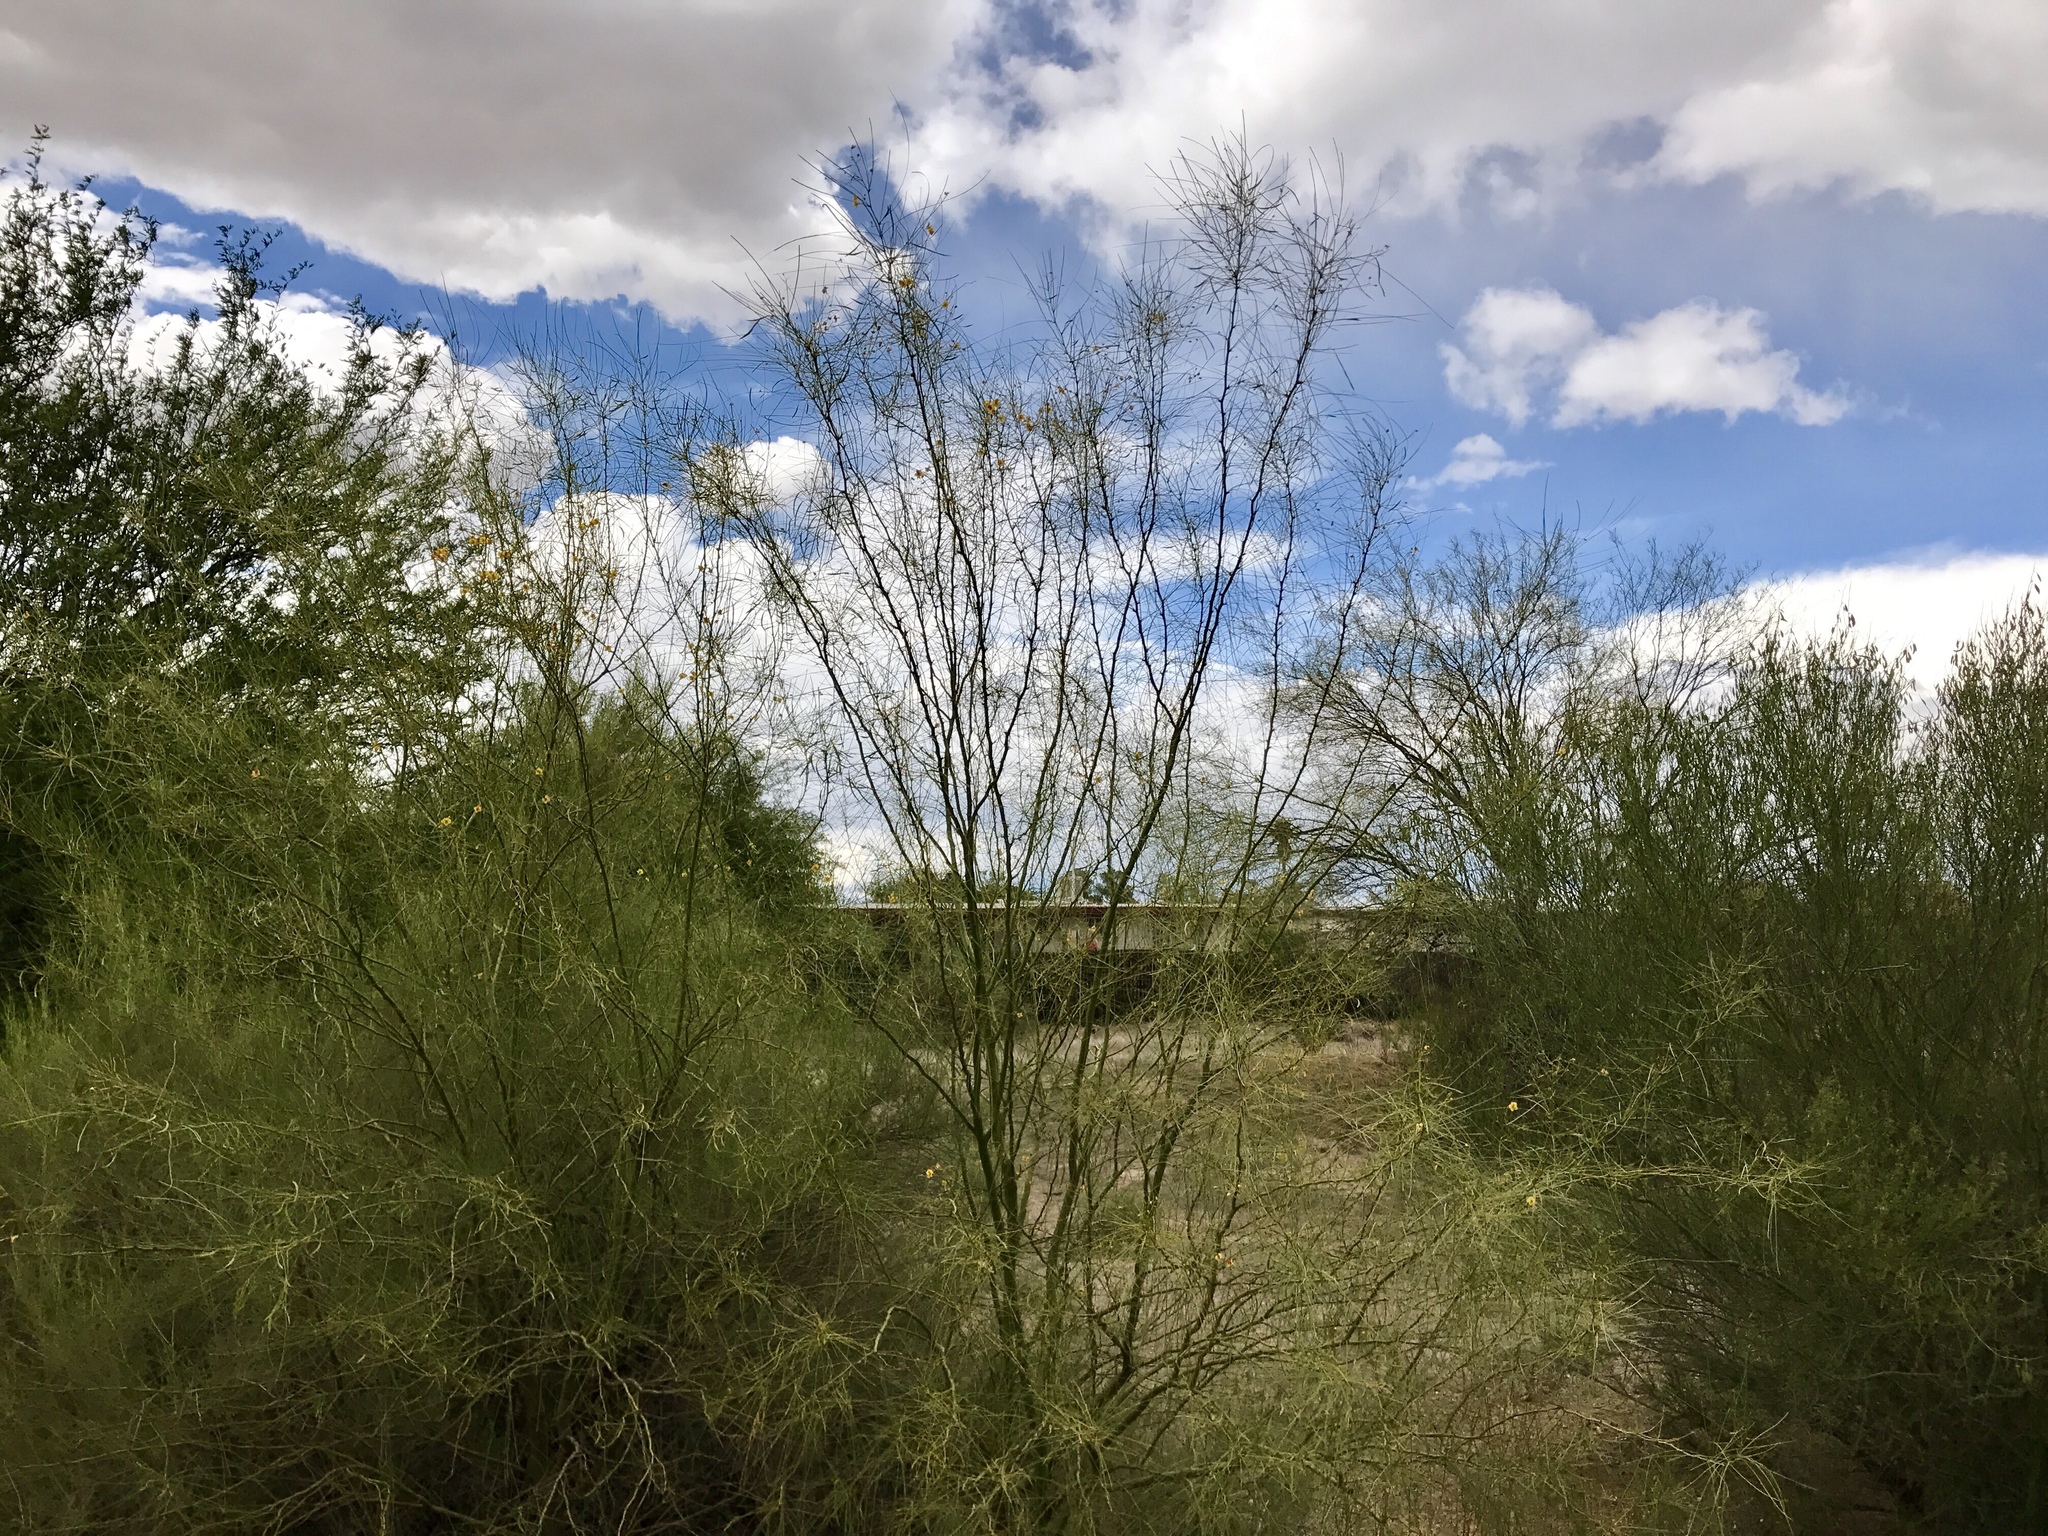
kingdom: Plantae
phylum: Tracheophyta
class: Magnoliopsida
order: Fabales
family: Fabaceae
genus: Parkinsonia
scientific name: Parkinsonia aculeata
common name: Jerusalem thorn
